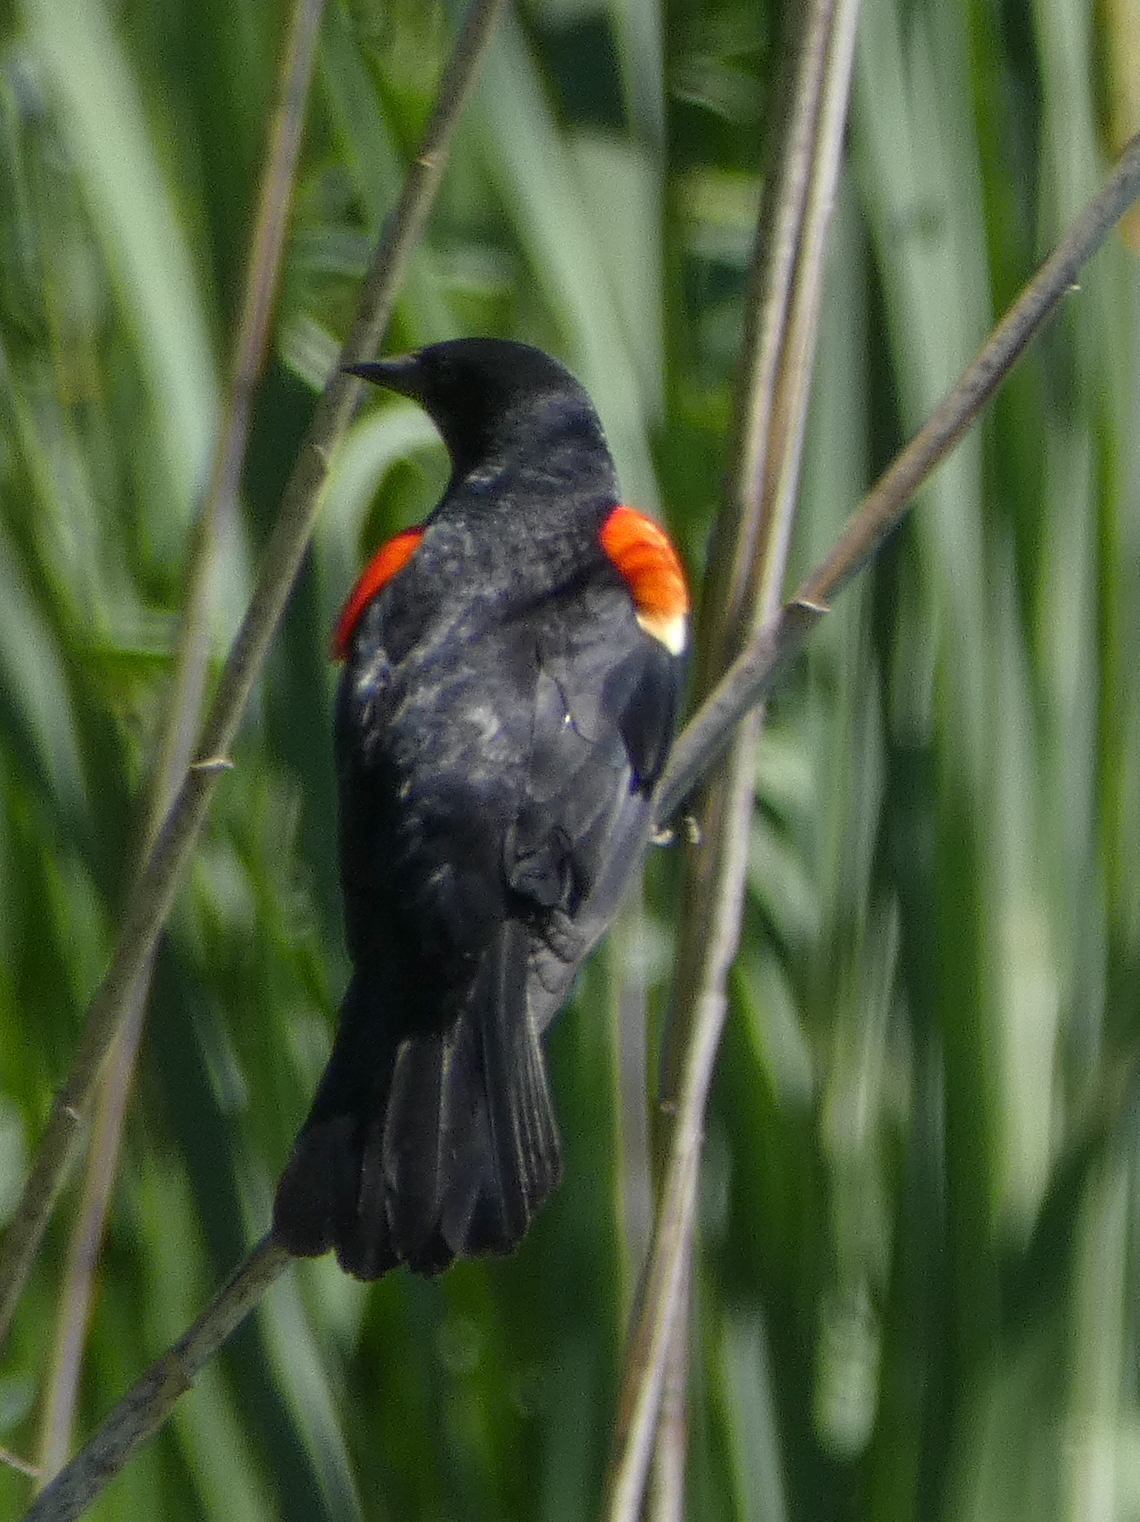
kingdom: Animalia
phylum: Chordata
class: Aves
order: Passeriformes
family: Icteridae
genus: Agelaius
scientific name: Agelaius phoeniceus
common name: Red-winged blackbird
